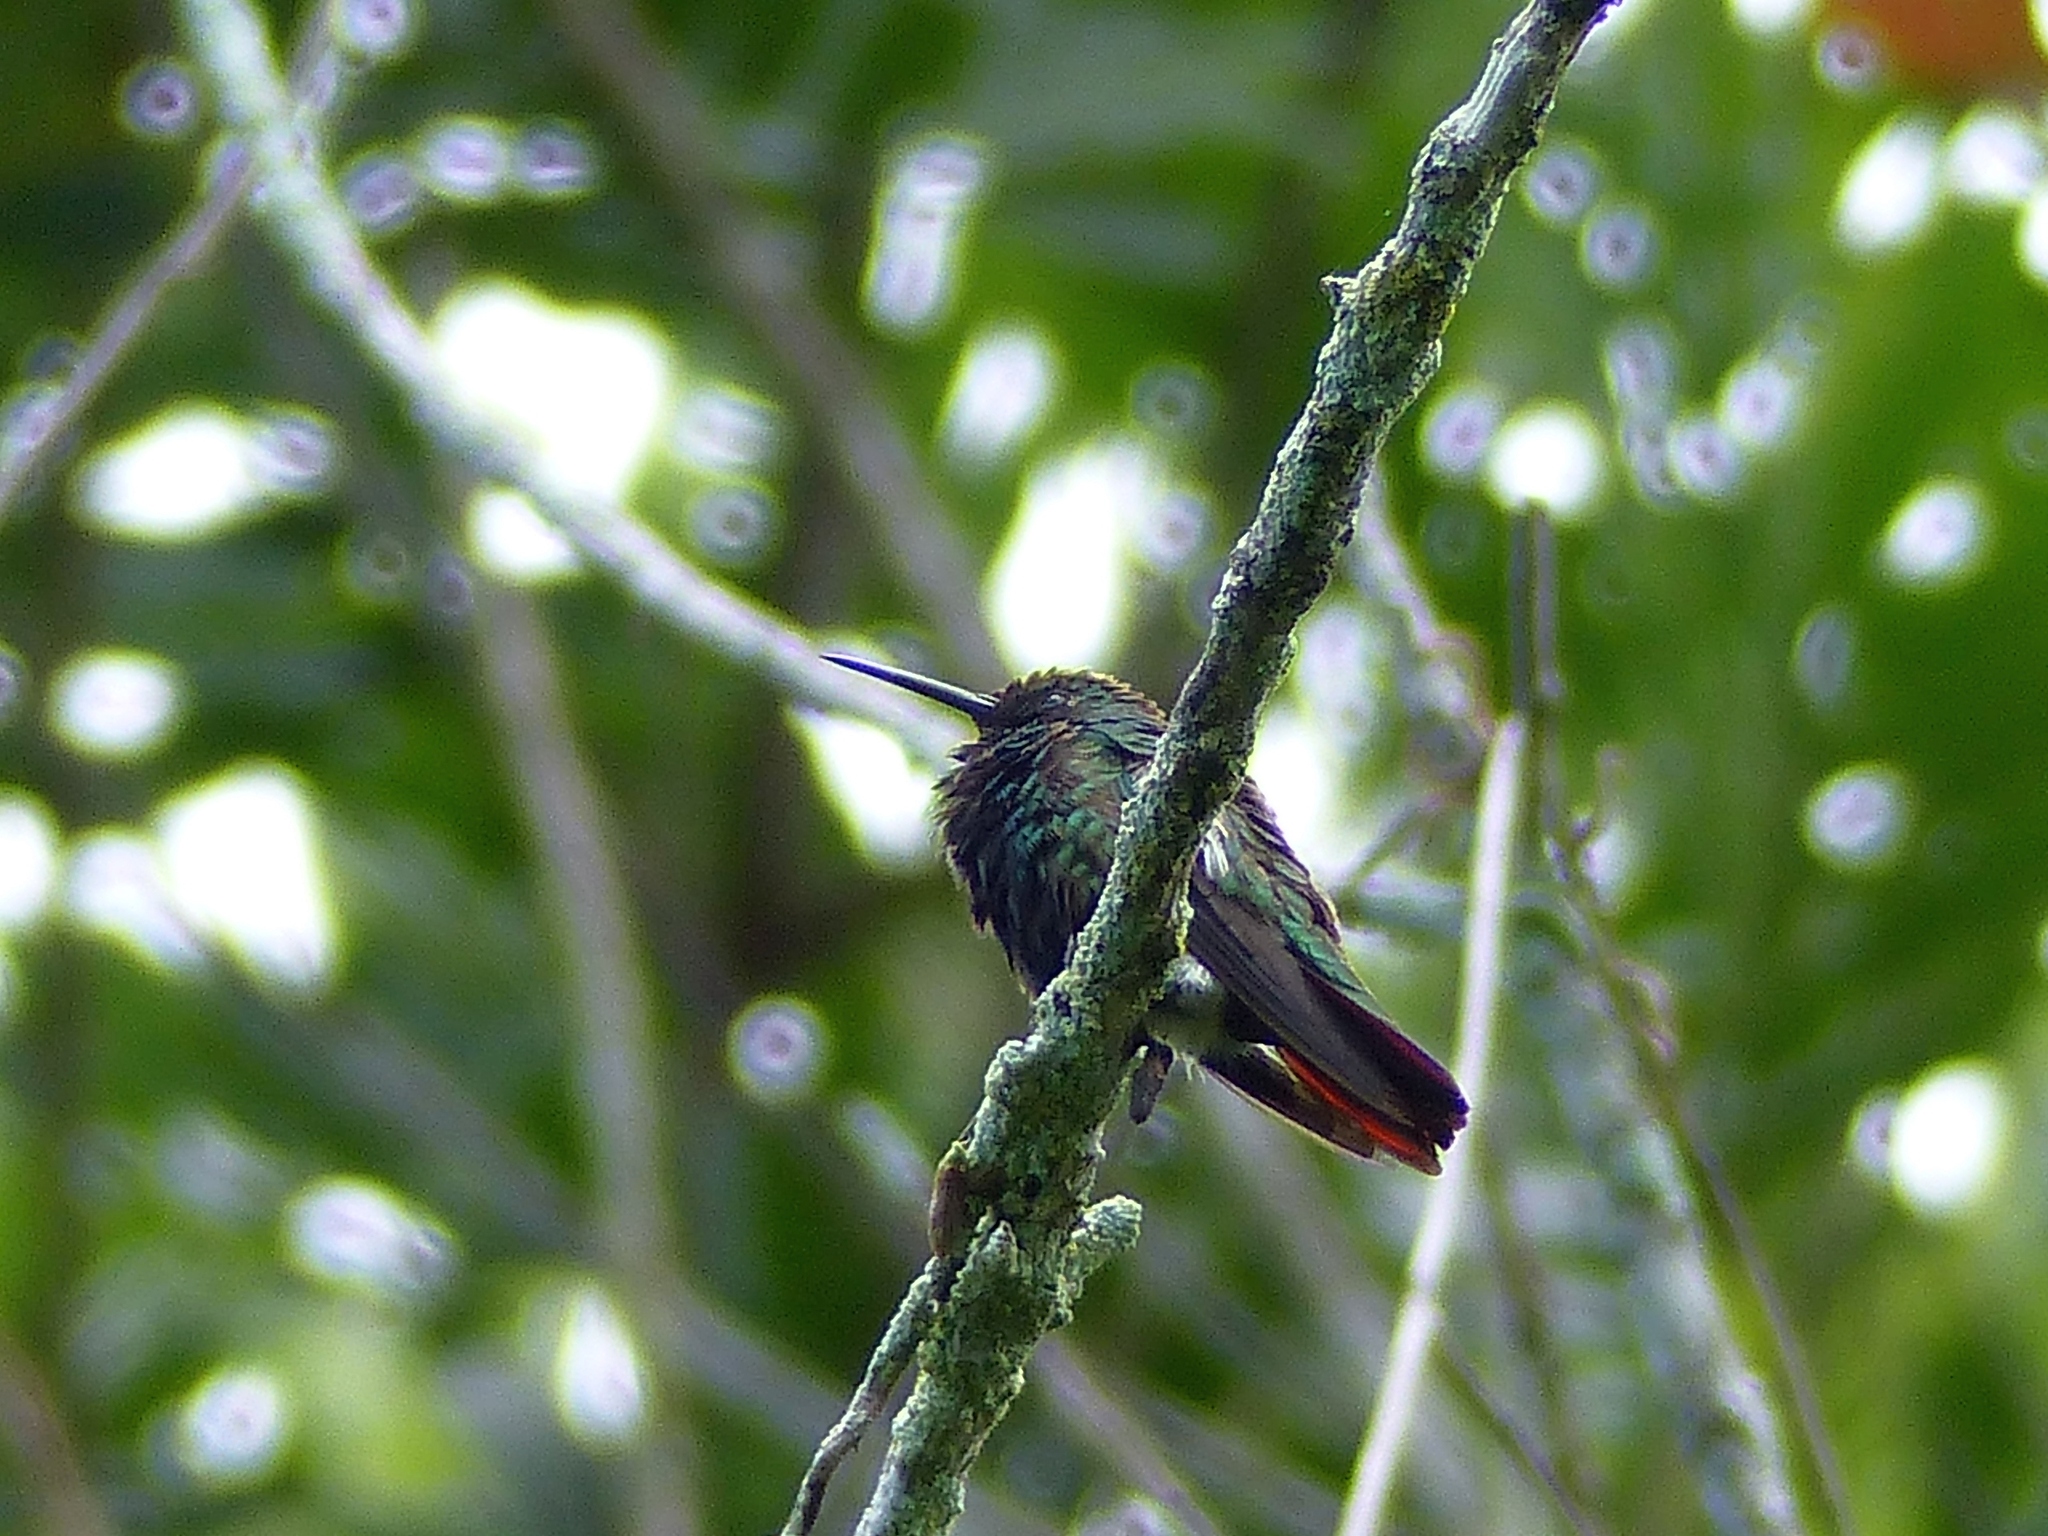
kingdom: Animalia
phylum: Chordata
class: Aves
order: Apodiformes
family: Trochilidae
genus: Anthracothorax
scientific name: Anthracothorax nigricollis
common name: Black-throated mango
